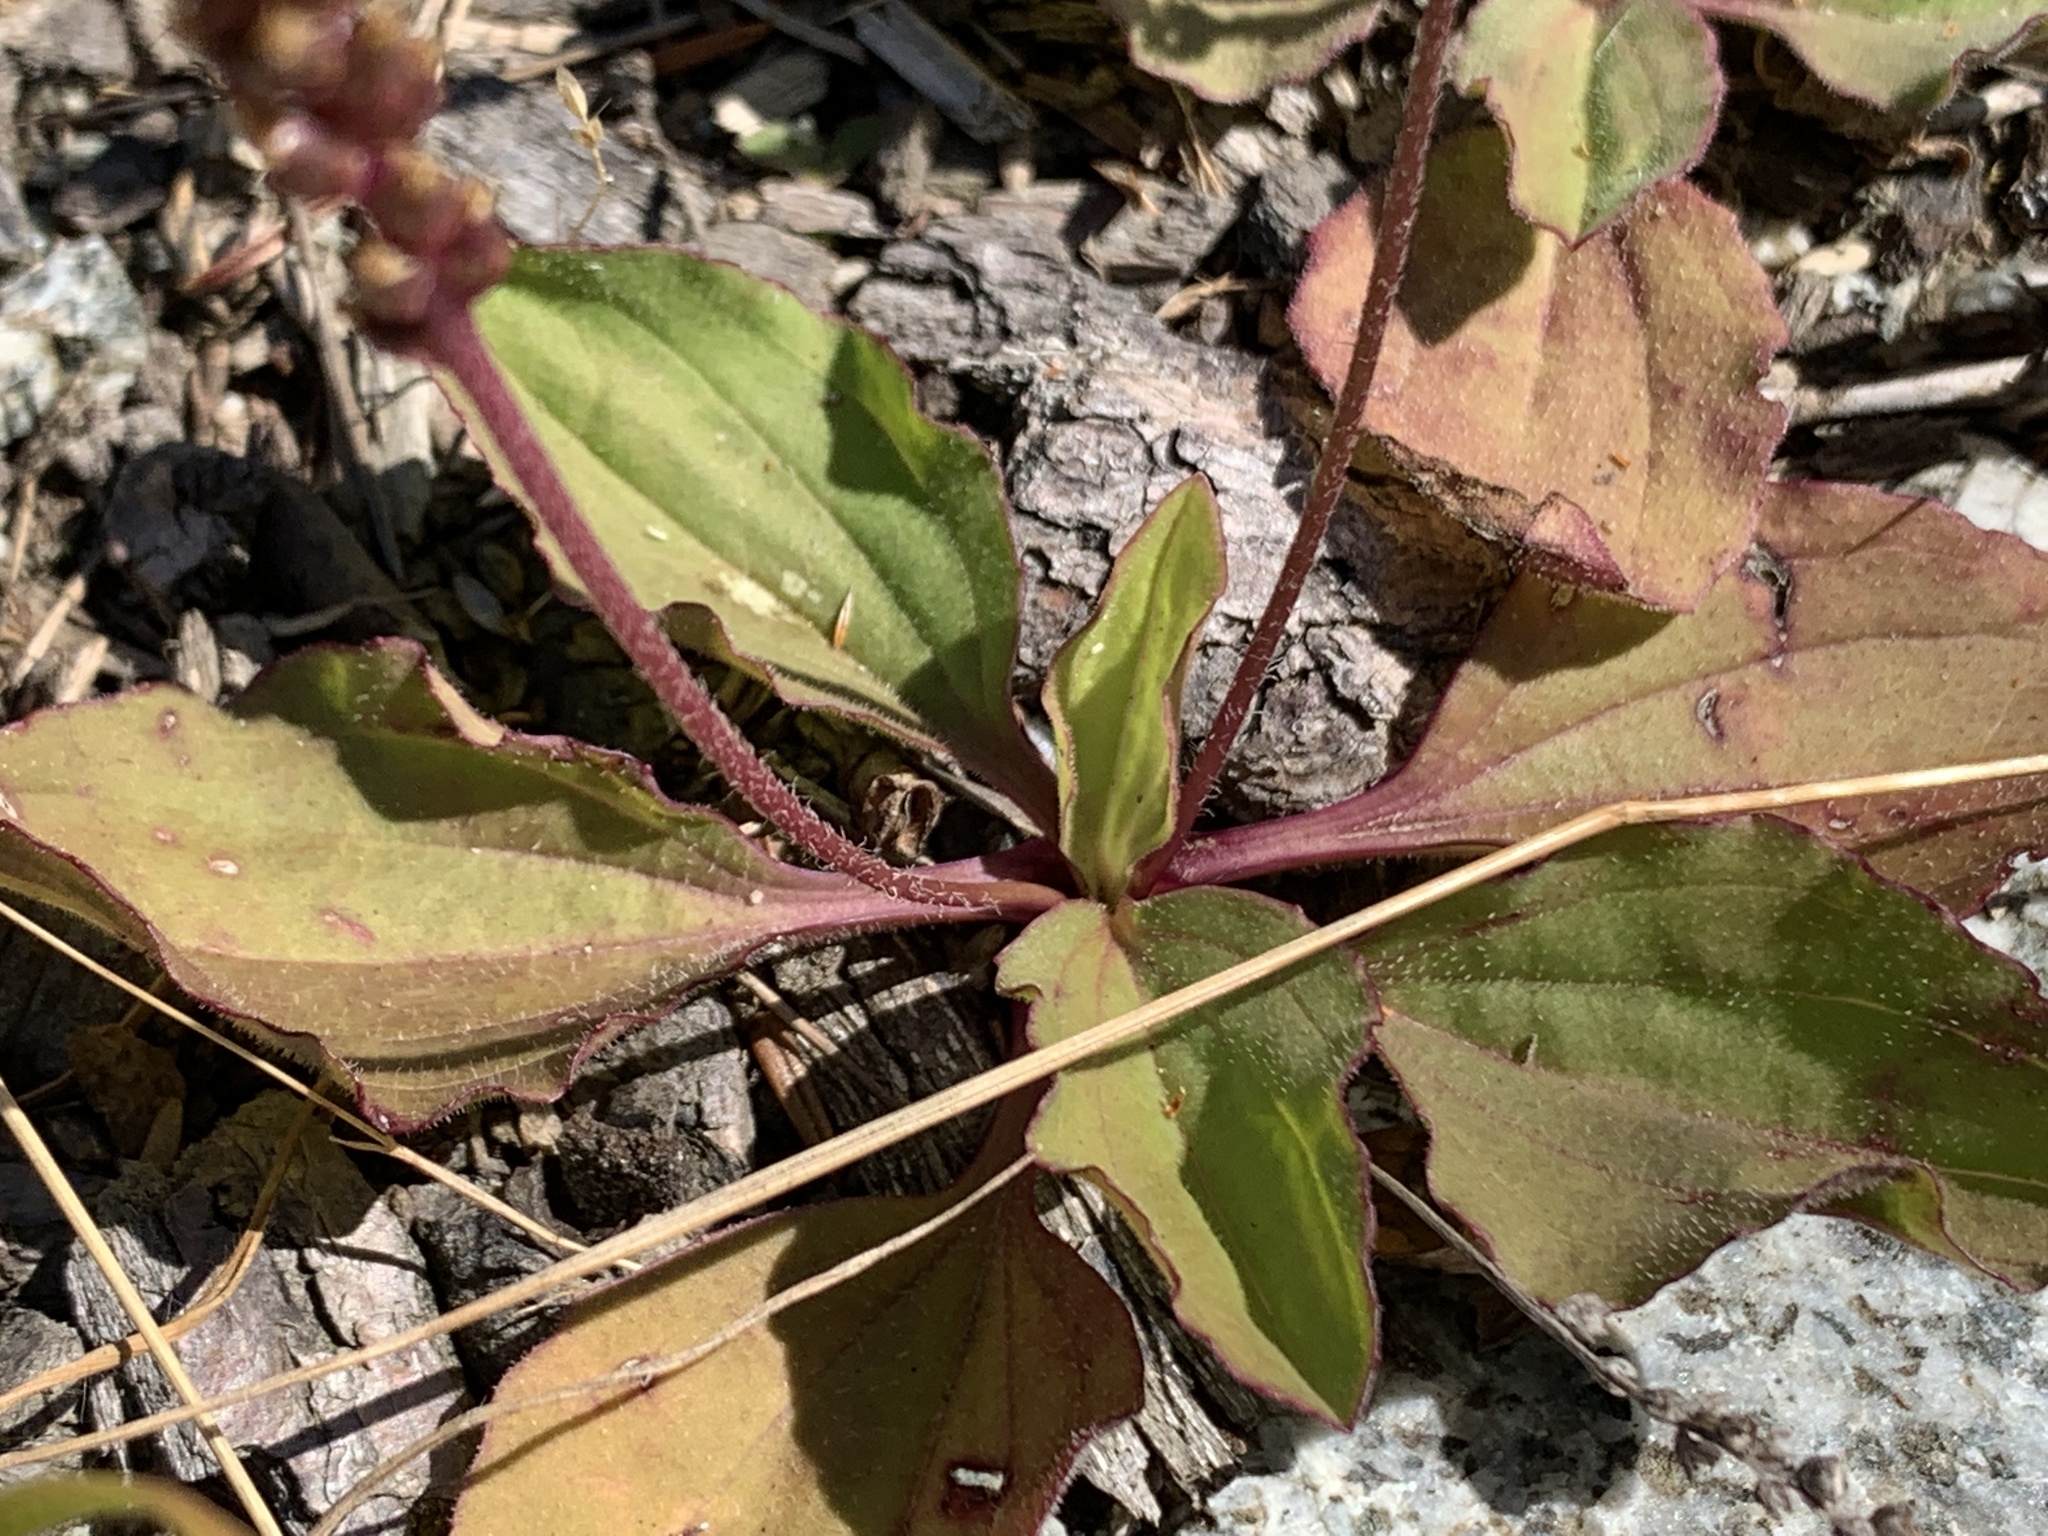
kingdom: Plantae
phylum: Tracheophyta
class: Magnoliopsida
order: Lamiales
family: Plantaginaceae
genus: Plantago
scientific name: Plantago major
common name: Common plantain
